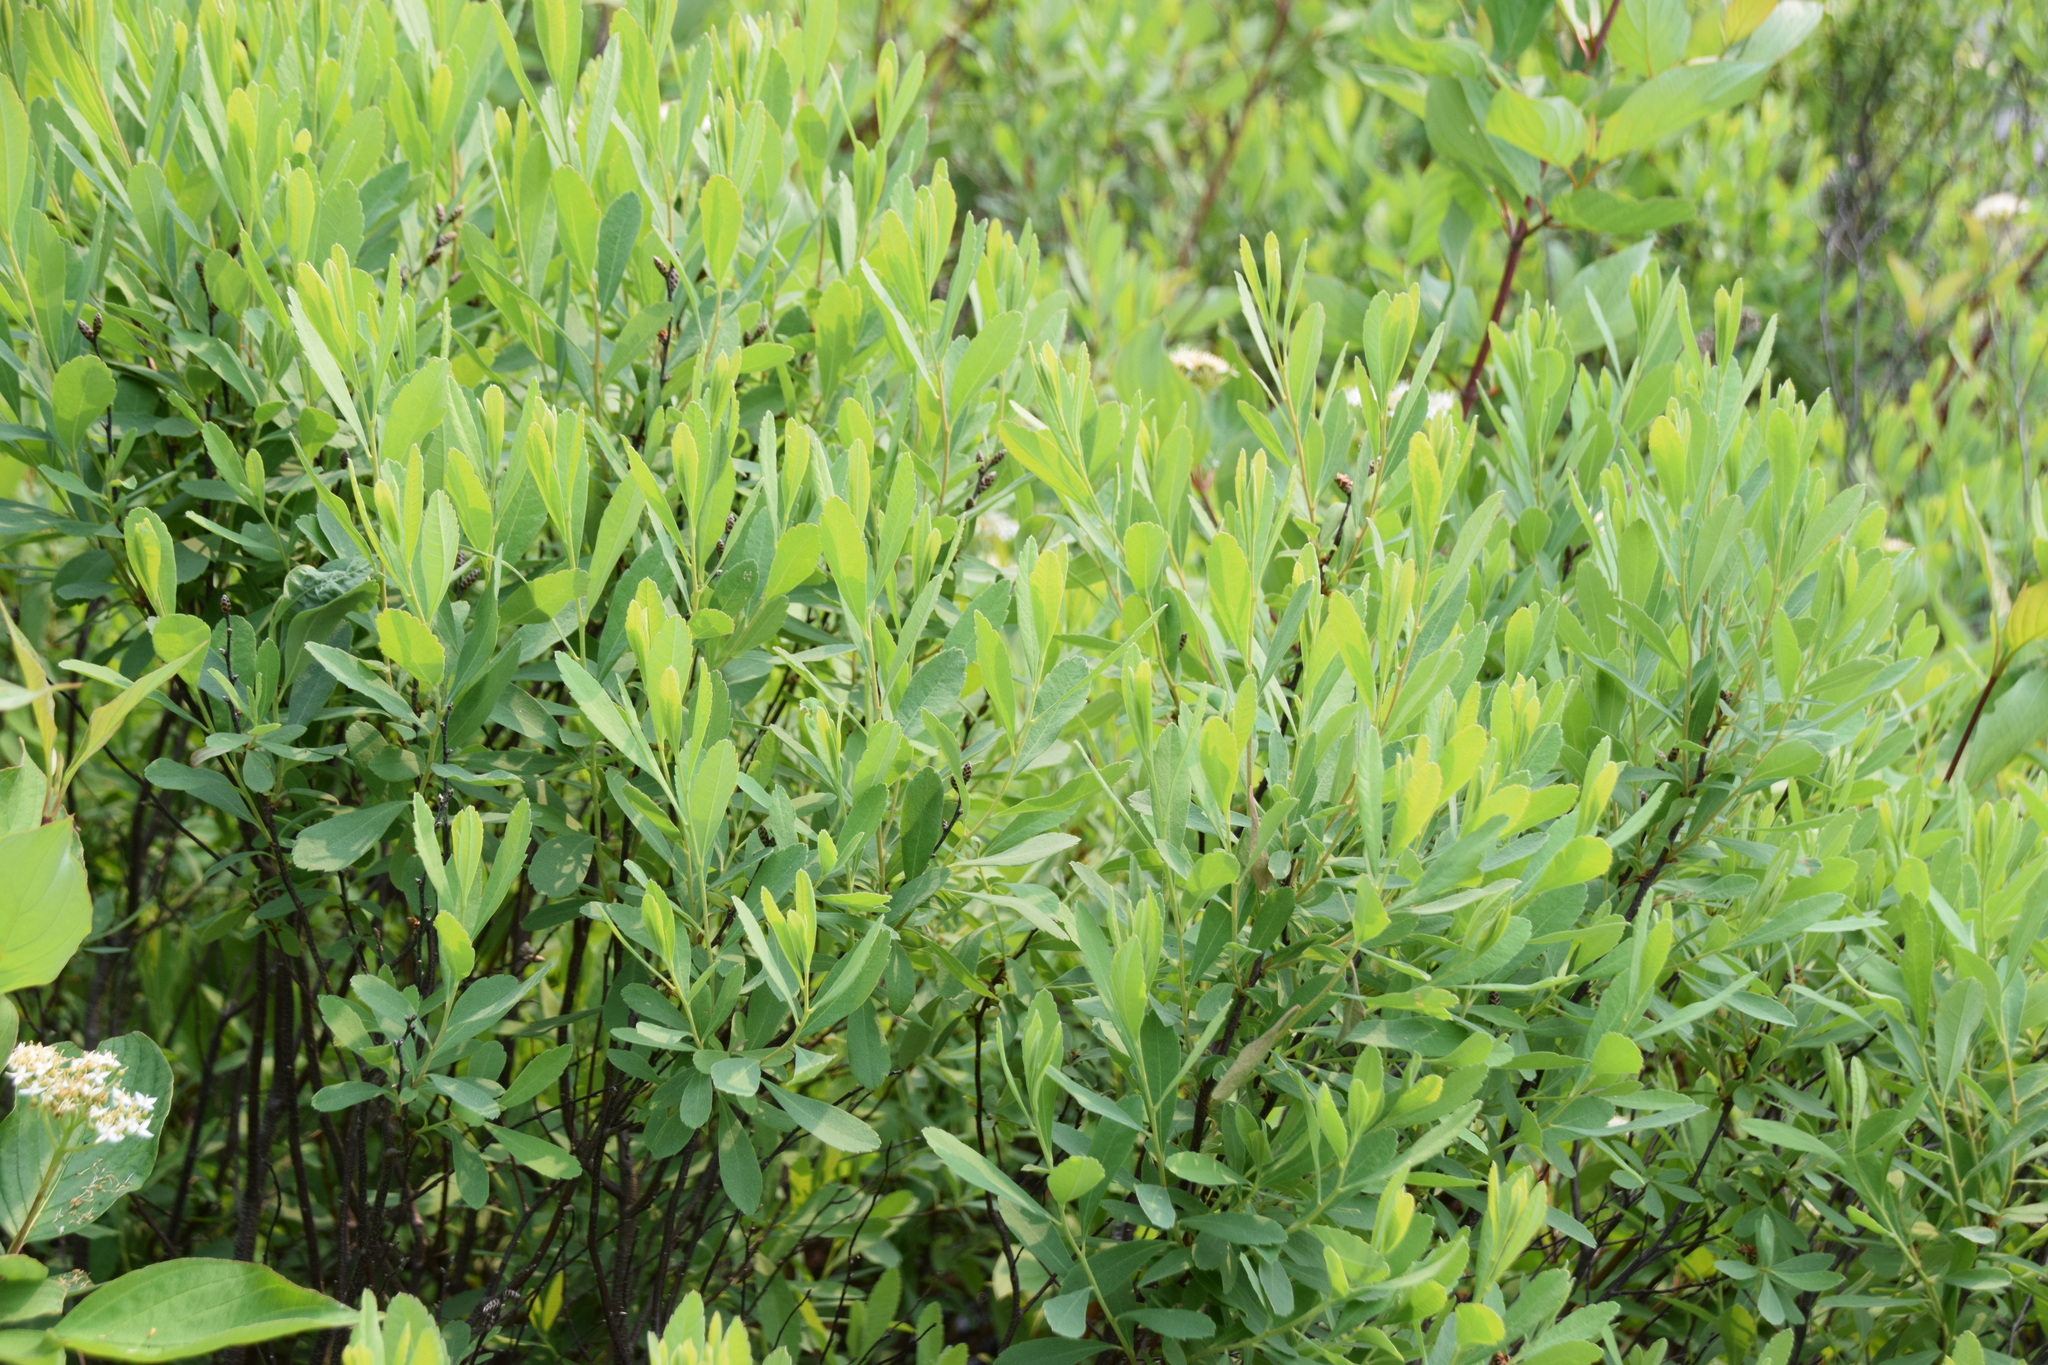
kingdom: Plantae
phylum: Tracheophyta
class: Magnoliopsida
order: Fagales
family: Myricaceae
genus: Myrica
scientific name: Myrica gale
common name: Sweet gale
